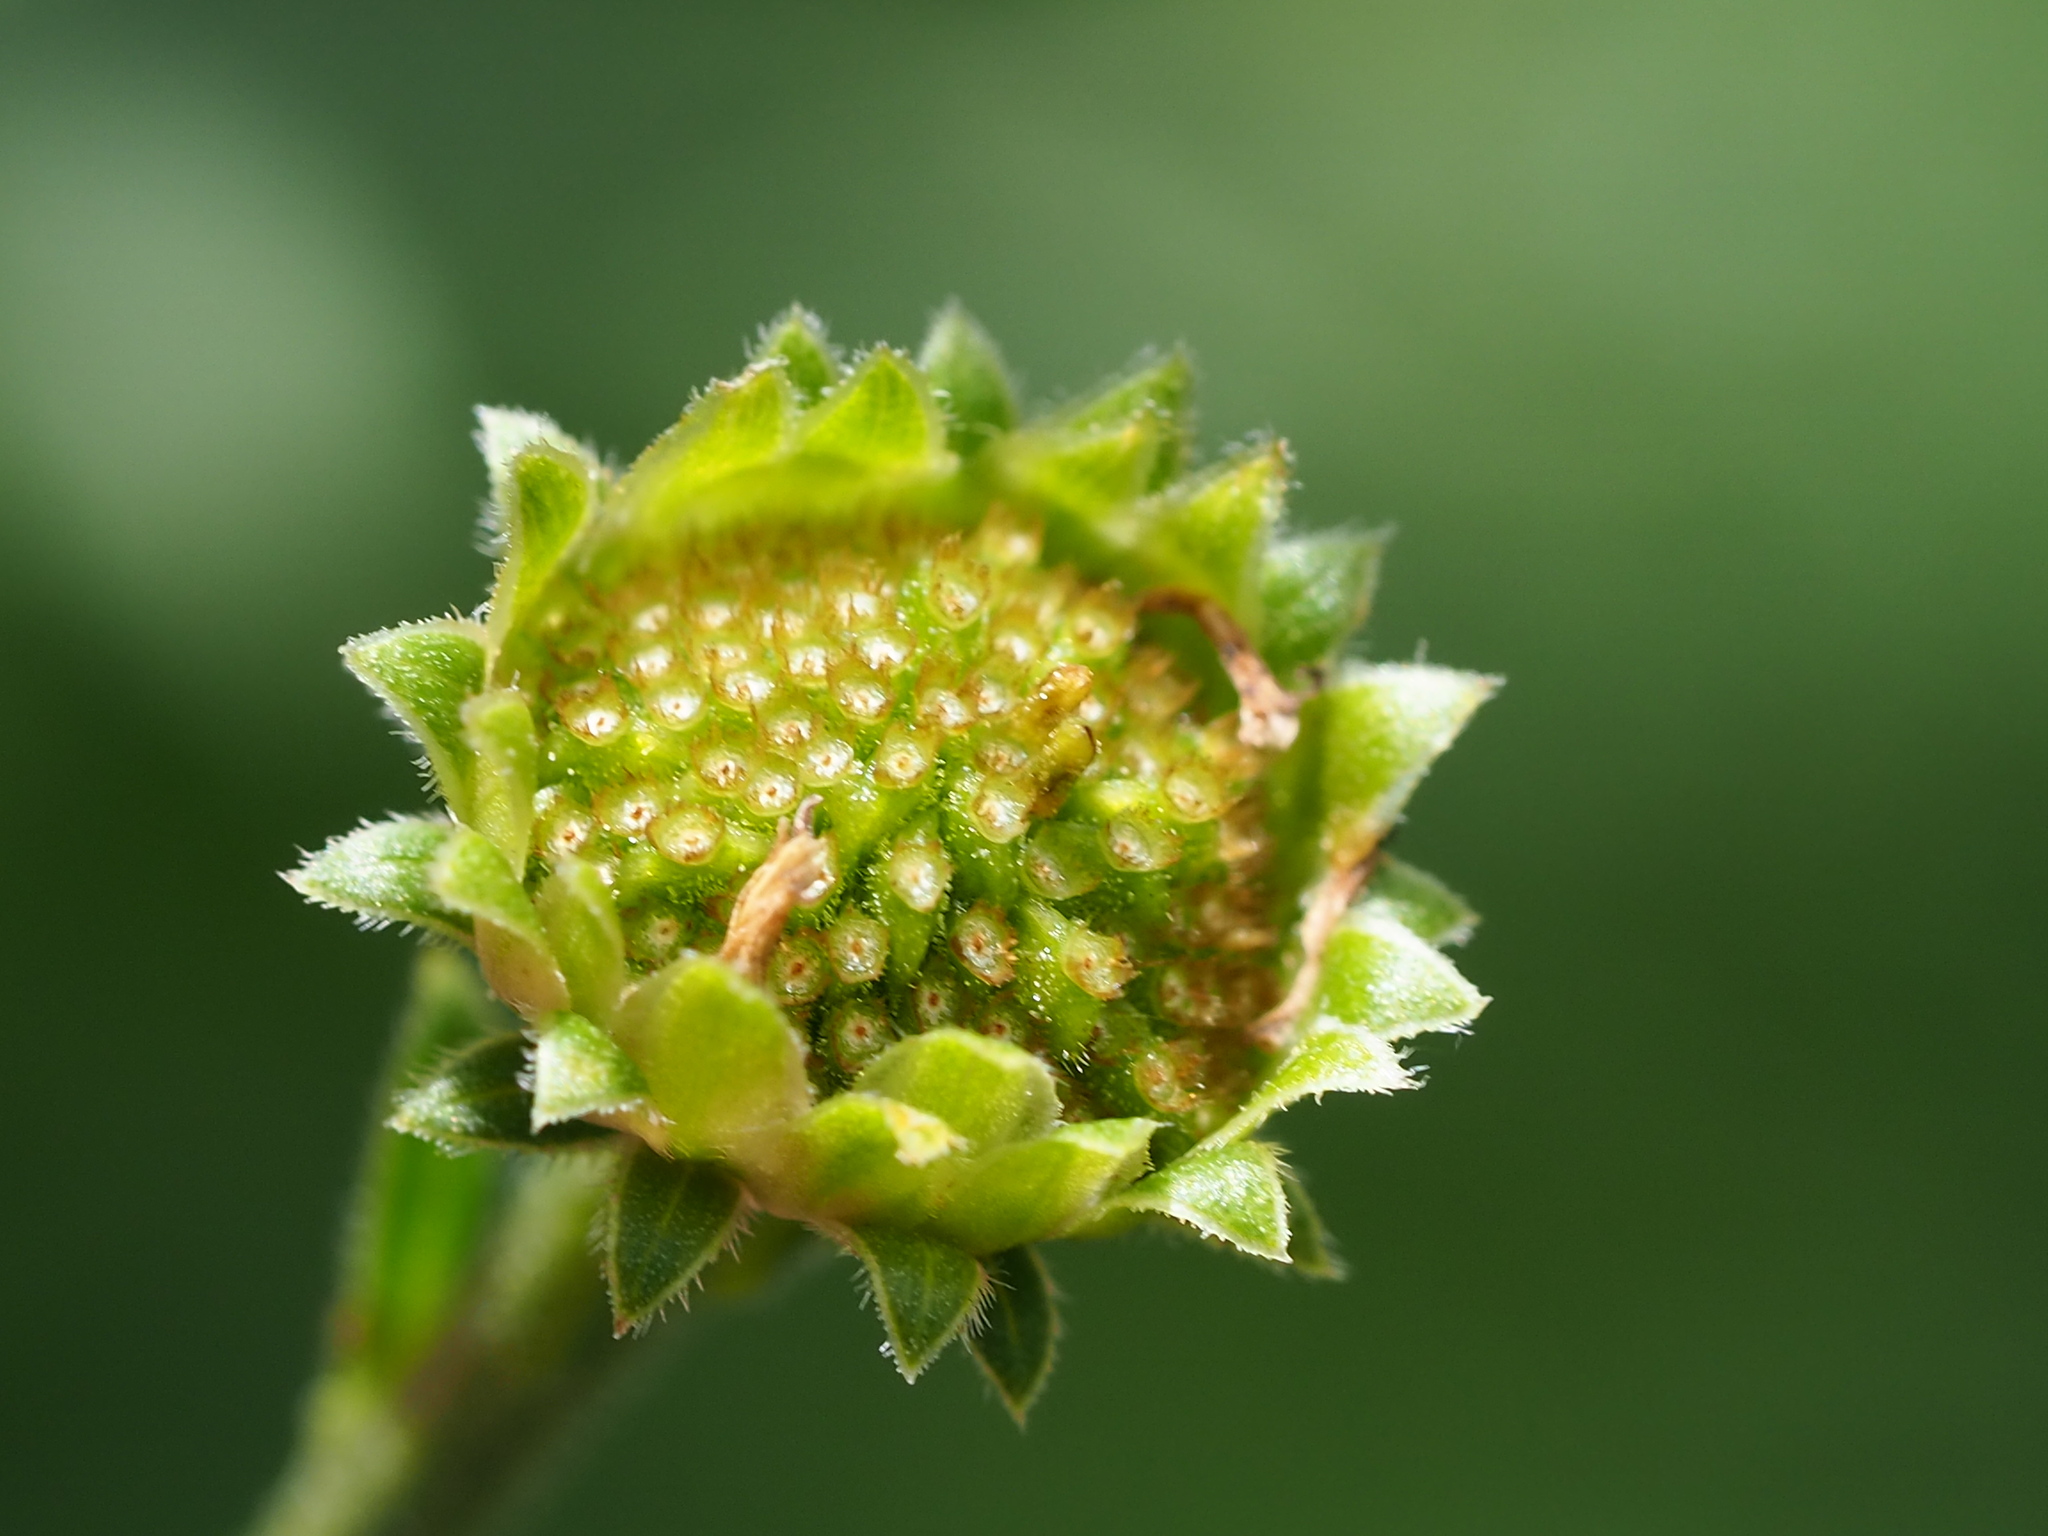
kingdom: Plantae
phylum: Tracheophyta
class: Magnoliopsida
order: Asterales
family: Asteraceae
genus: Aster
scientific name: Aster shimadae
